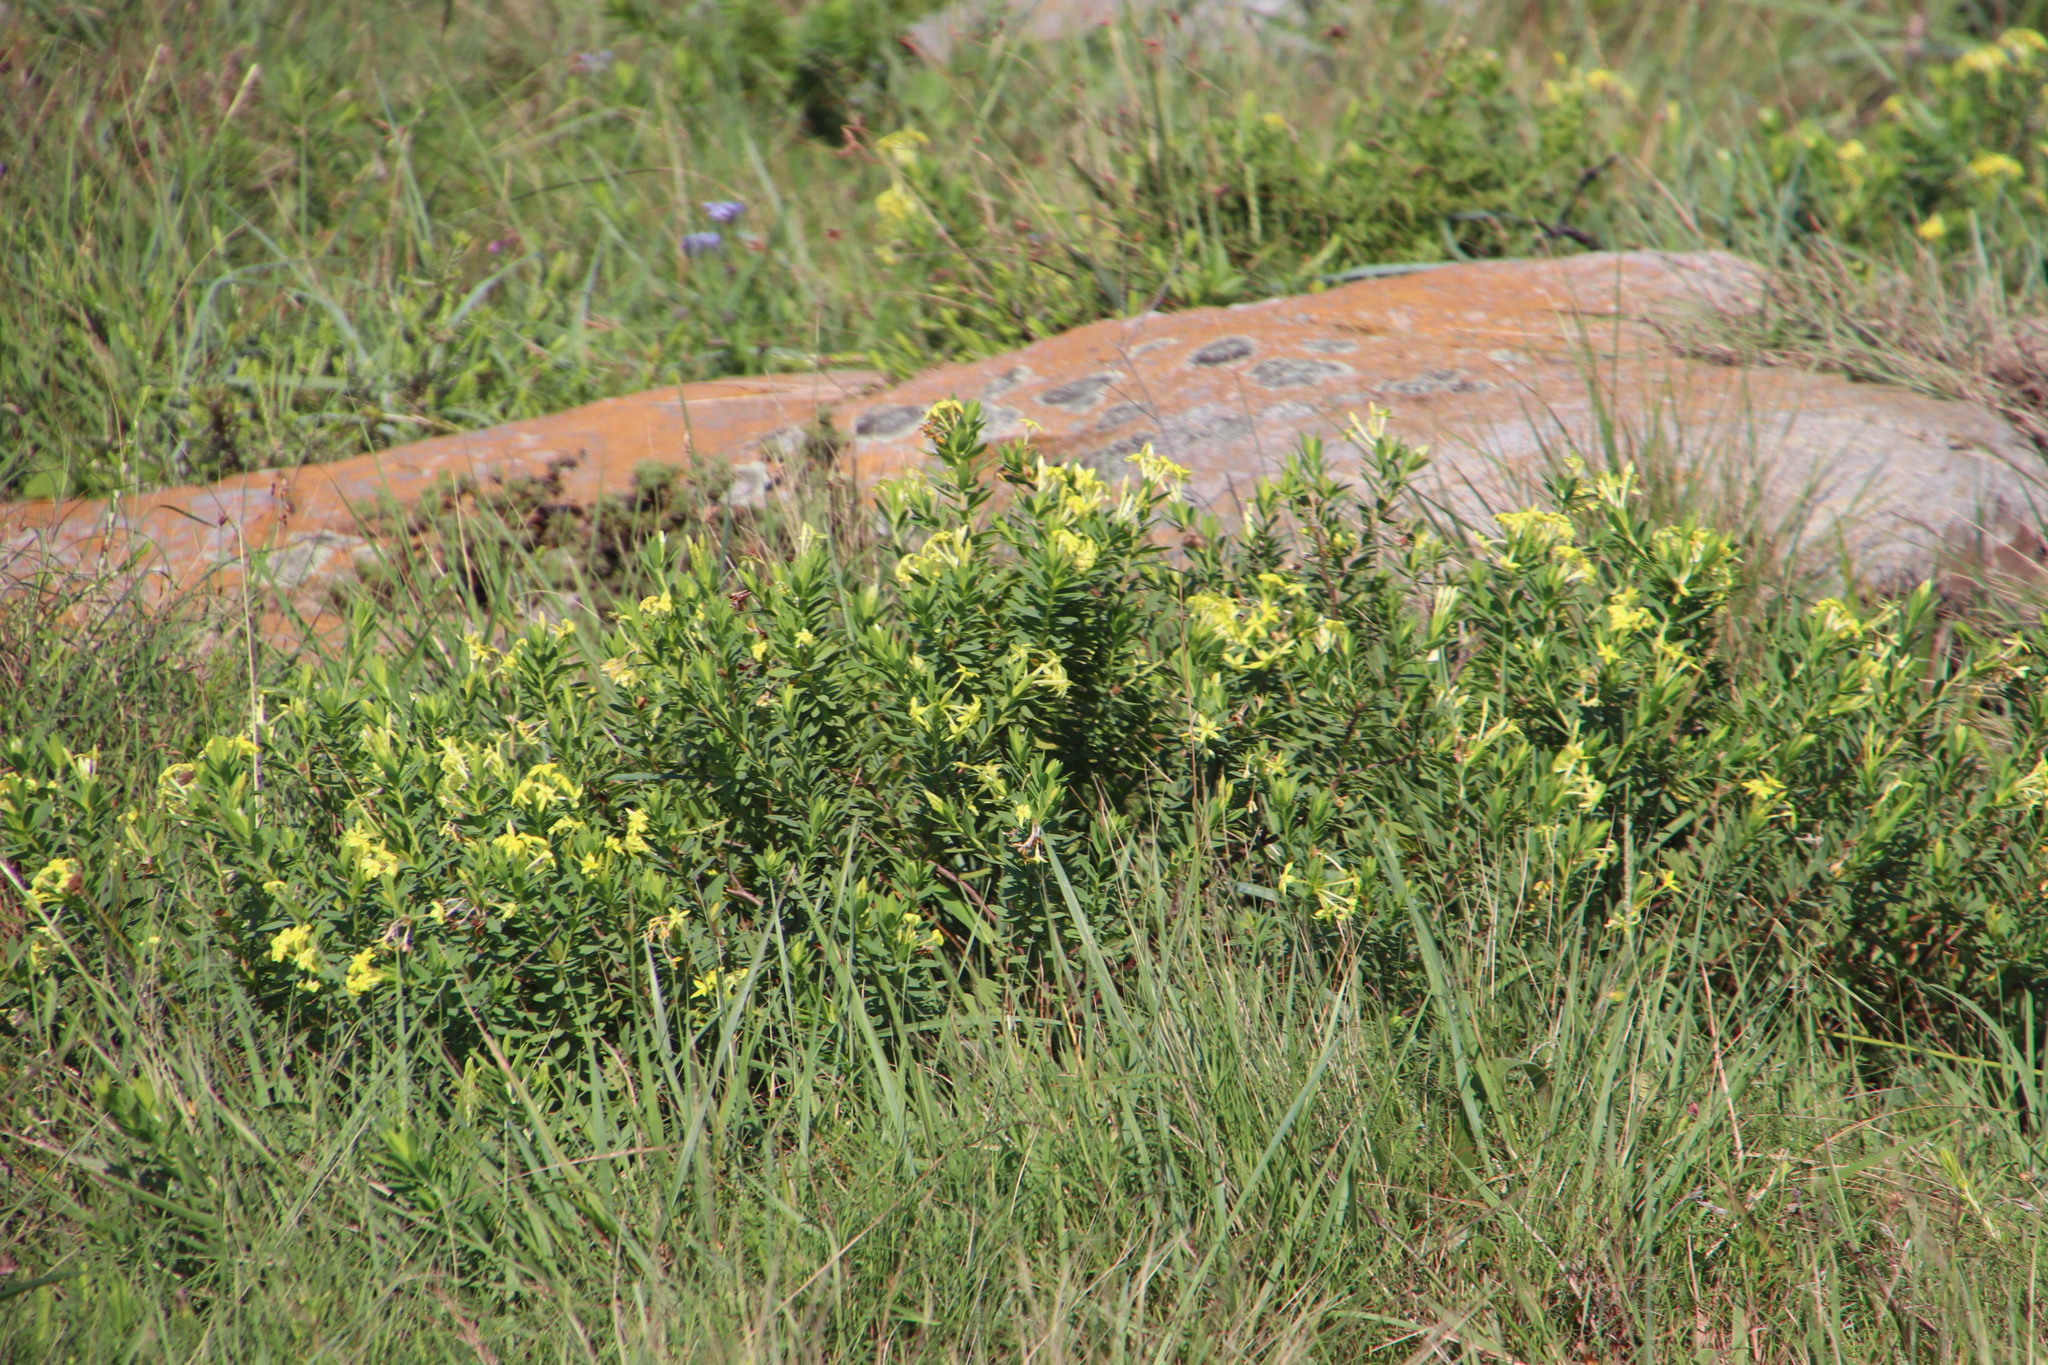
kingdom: Plantae
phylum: Tracheophyta
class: Magnoliopsida
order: Malvales
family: Thymelaeaceae
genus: Gnidia
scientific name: Gnidia anthylloides
